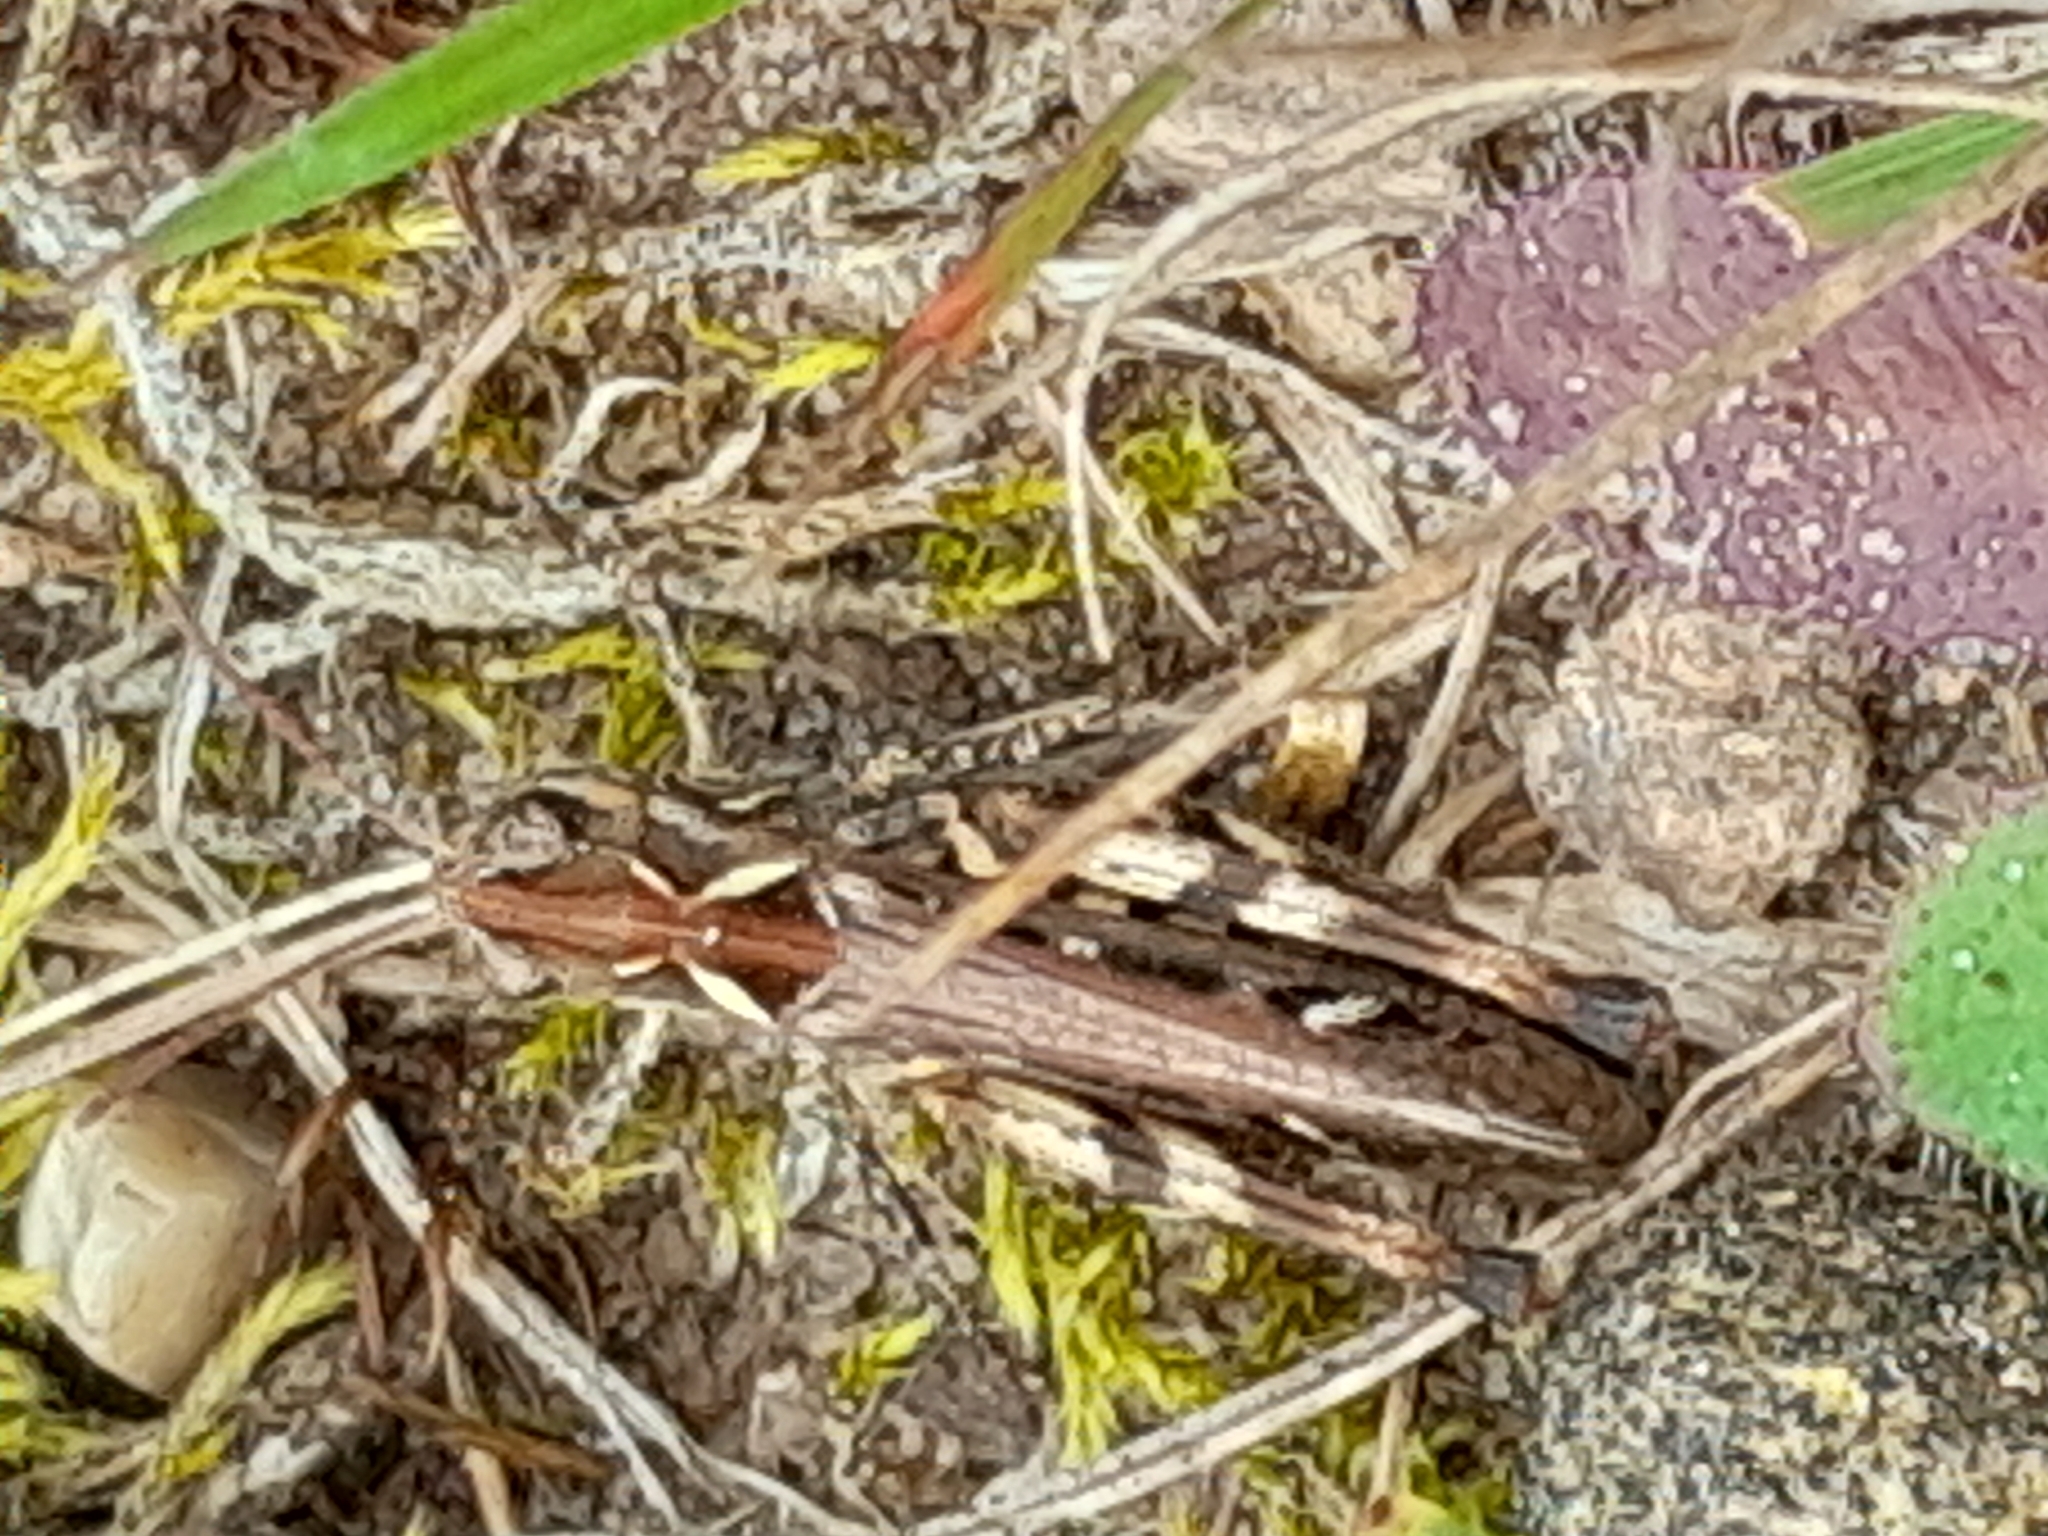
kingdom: Animalia
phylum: Arthropoda
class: Insecta
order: Orthoptera
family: Acrididae
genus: Myrmeleotettix
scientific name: Myrmeleotettix maculatus
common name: Mottled grasshopper
